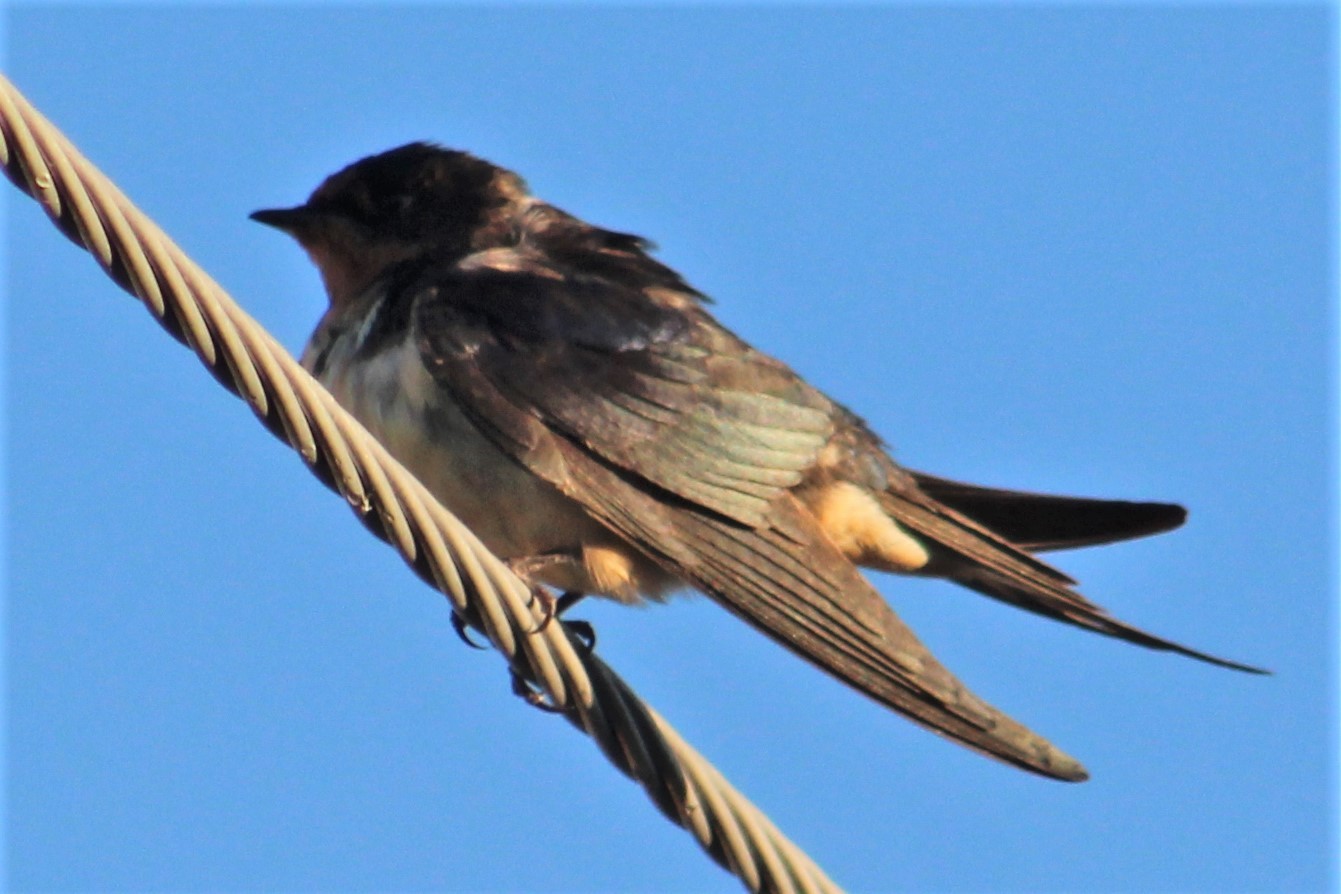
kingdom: Animalia
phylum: Chordata
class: Aves
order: Passeriformes
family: Hirundinidae
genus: Hirundo
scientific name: Hirundo rustica
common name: Barn swallow
